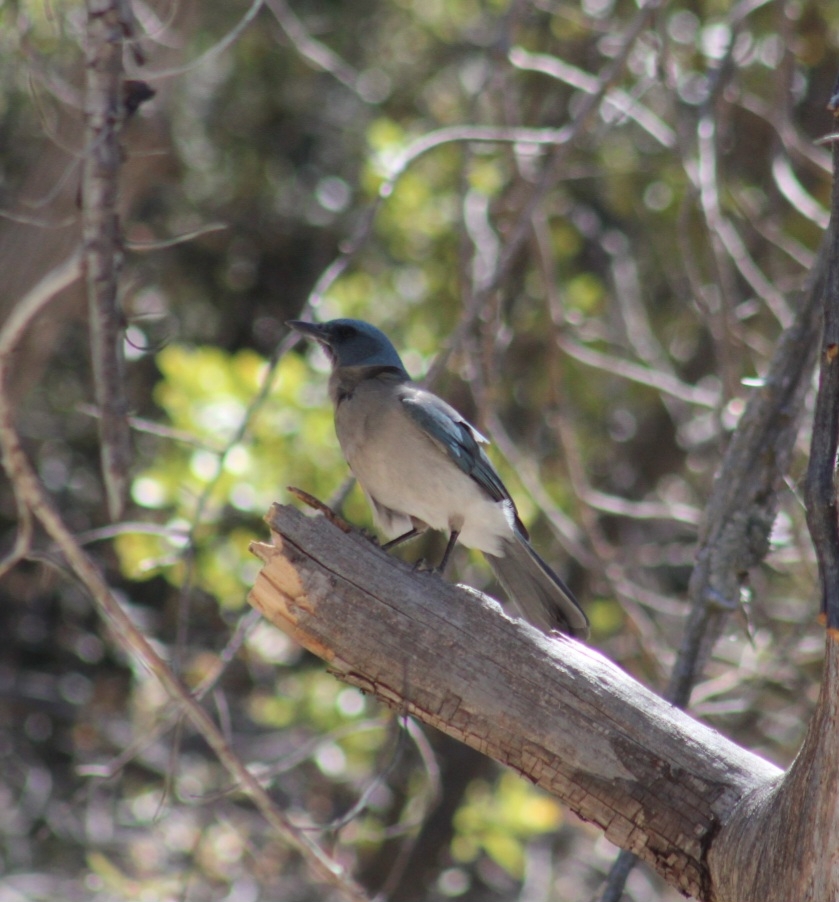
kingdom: Animalia
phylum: Chordata
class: Aves
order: Passeriformes
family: Corvidae
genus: Aphelocoma
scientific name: Aphelocoma wollweberi
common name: Mexican jay
